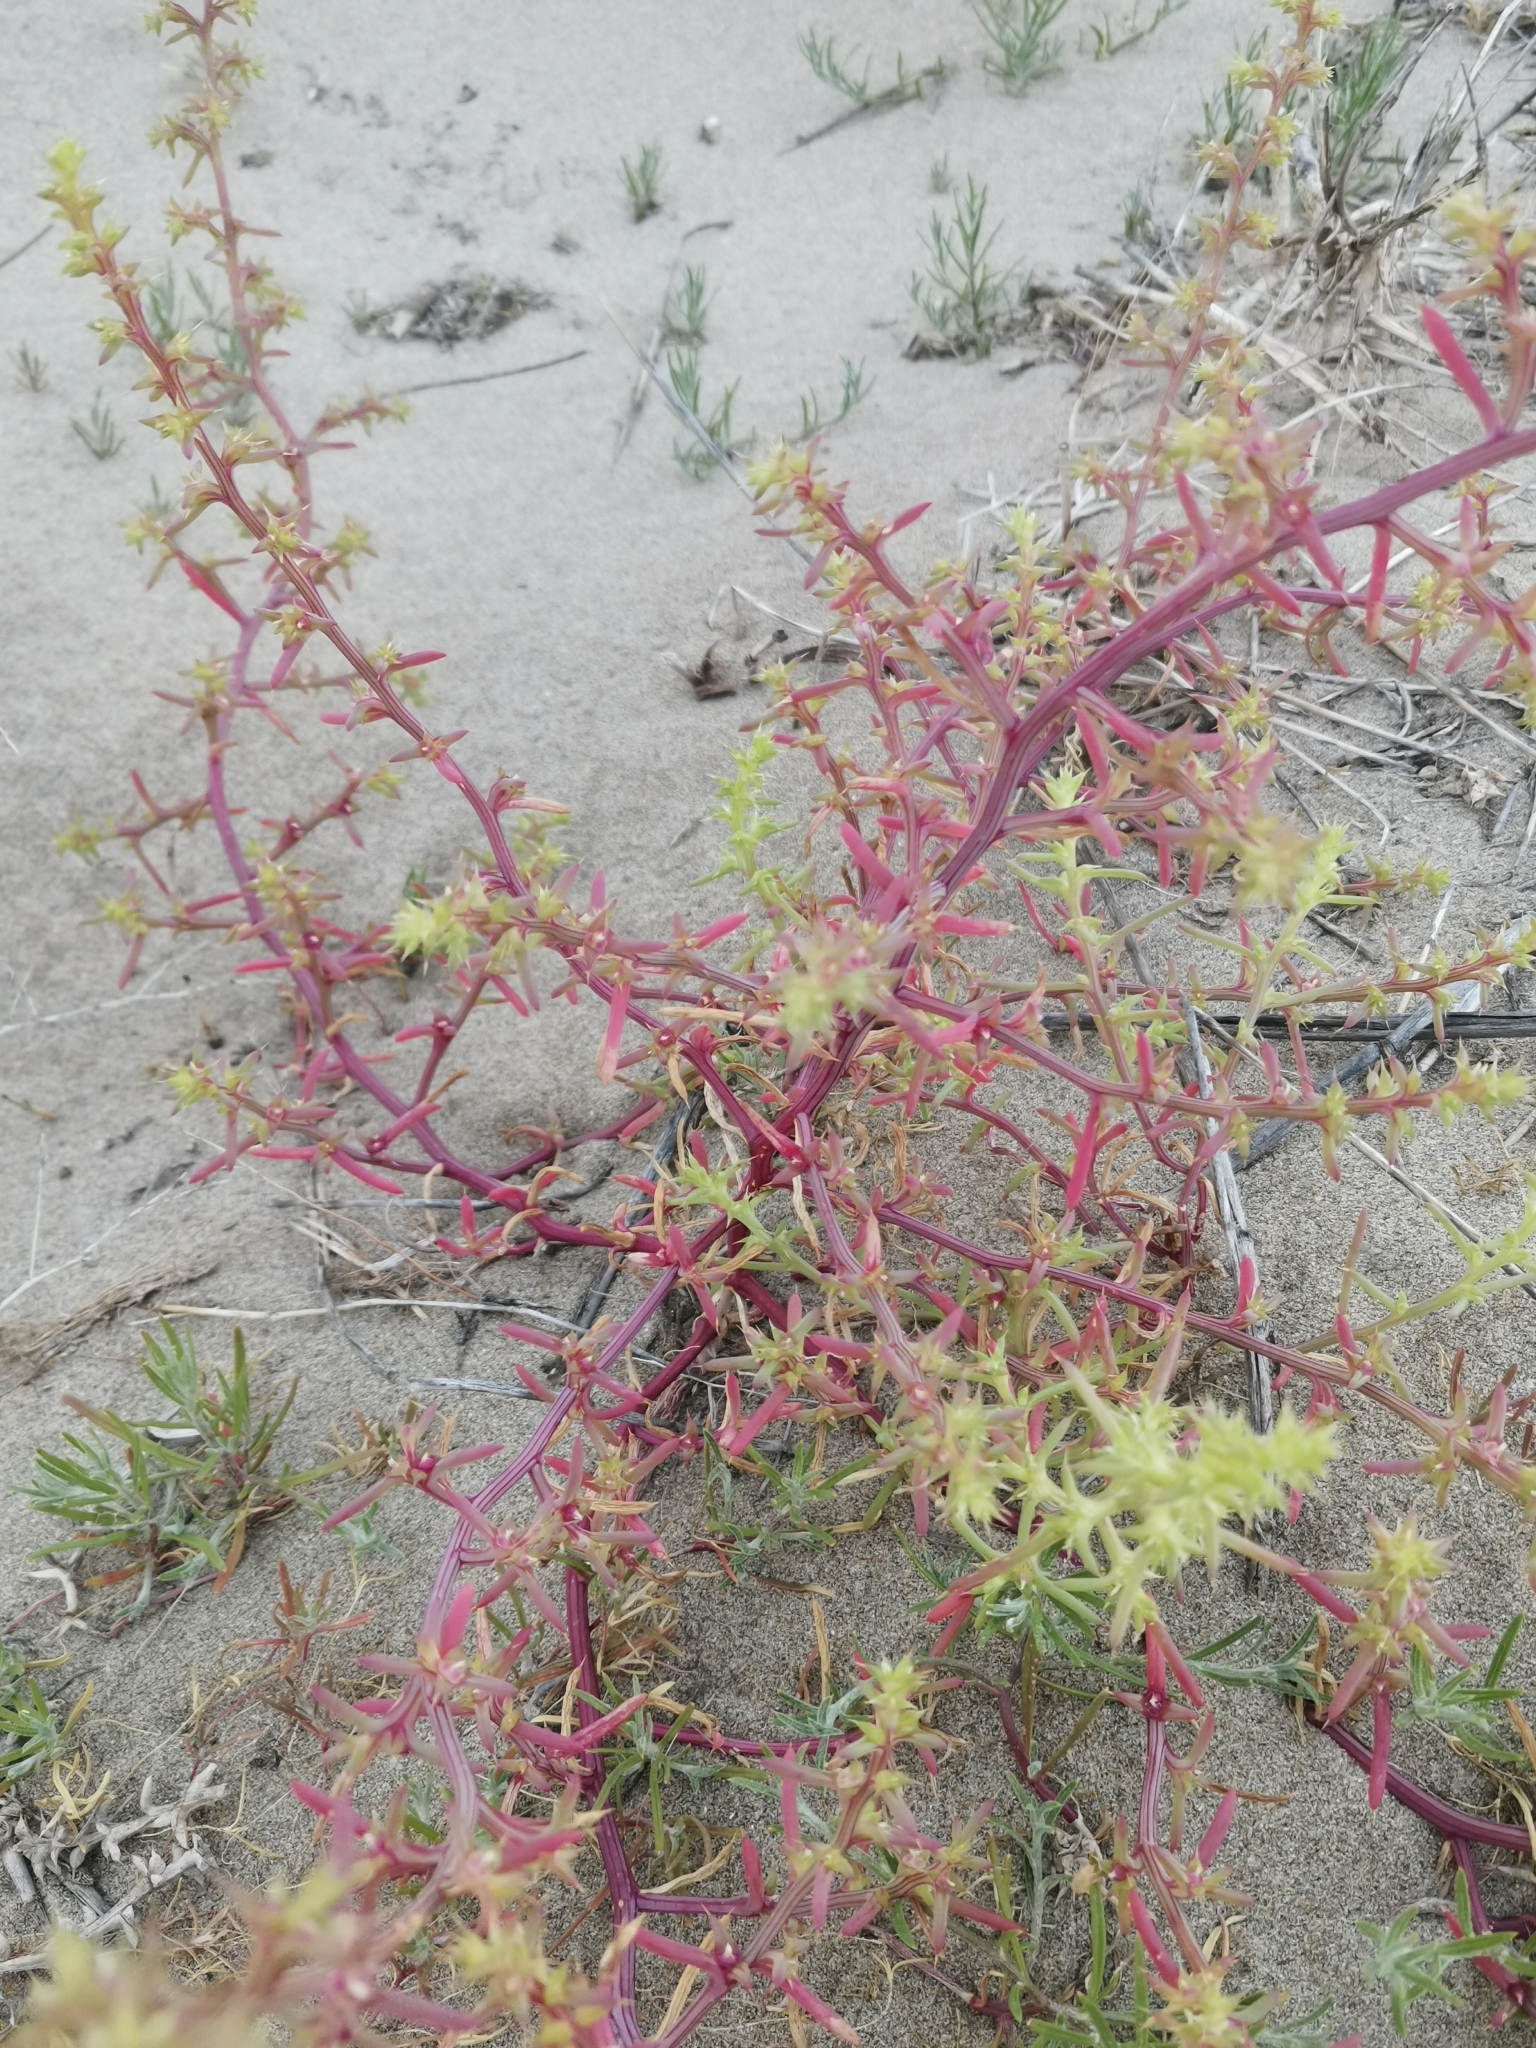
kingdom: Plantae
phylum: Tracheophyta
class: Magnoliopsida
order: Caryophyllales
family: Amaranthaceae
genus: Salsola
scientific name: Salsola kali
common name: Saltwort
